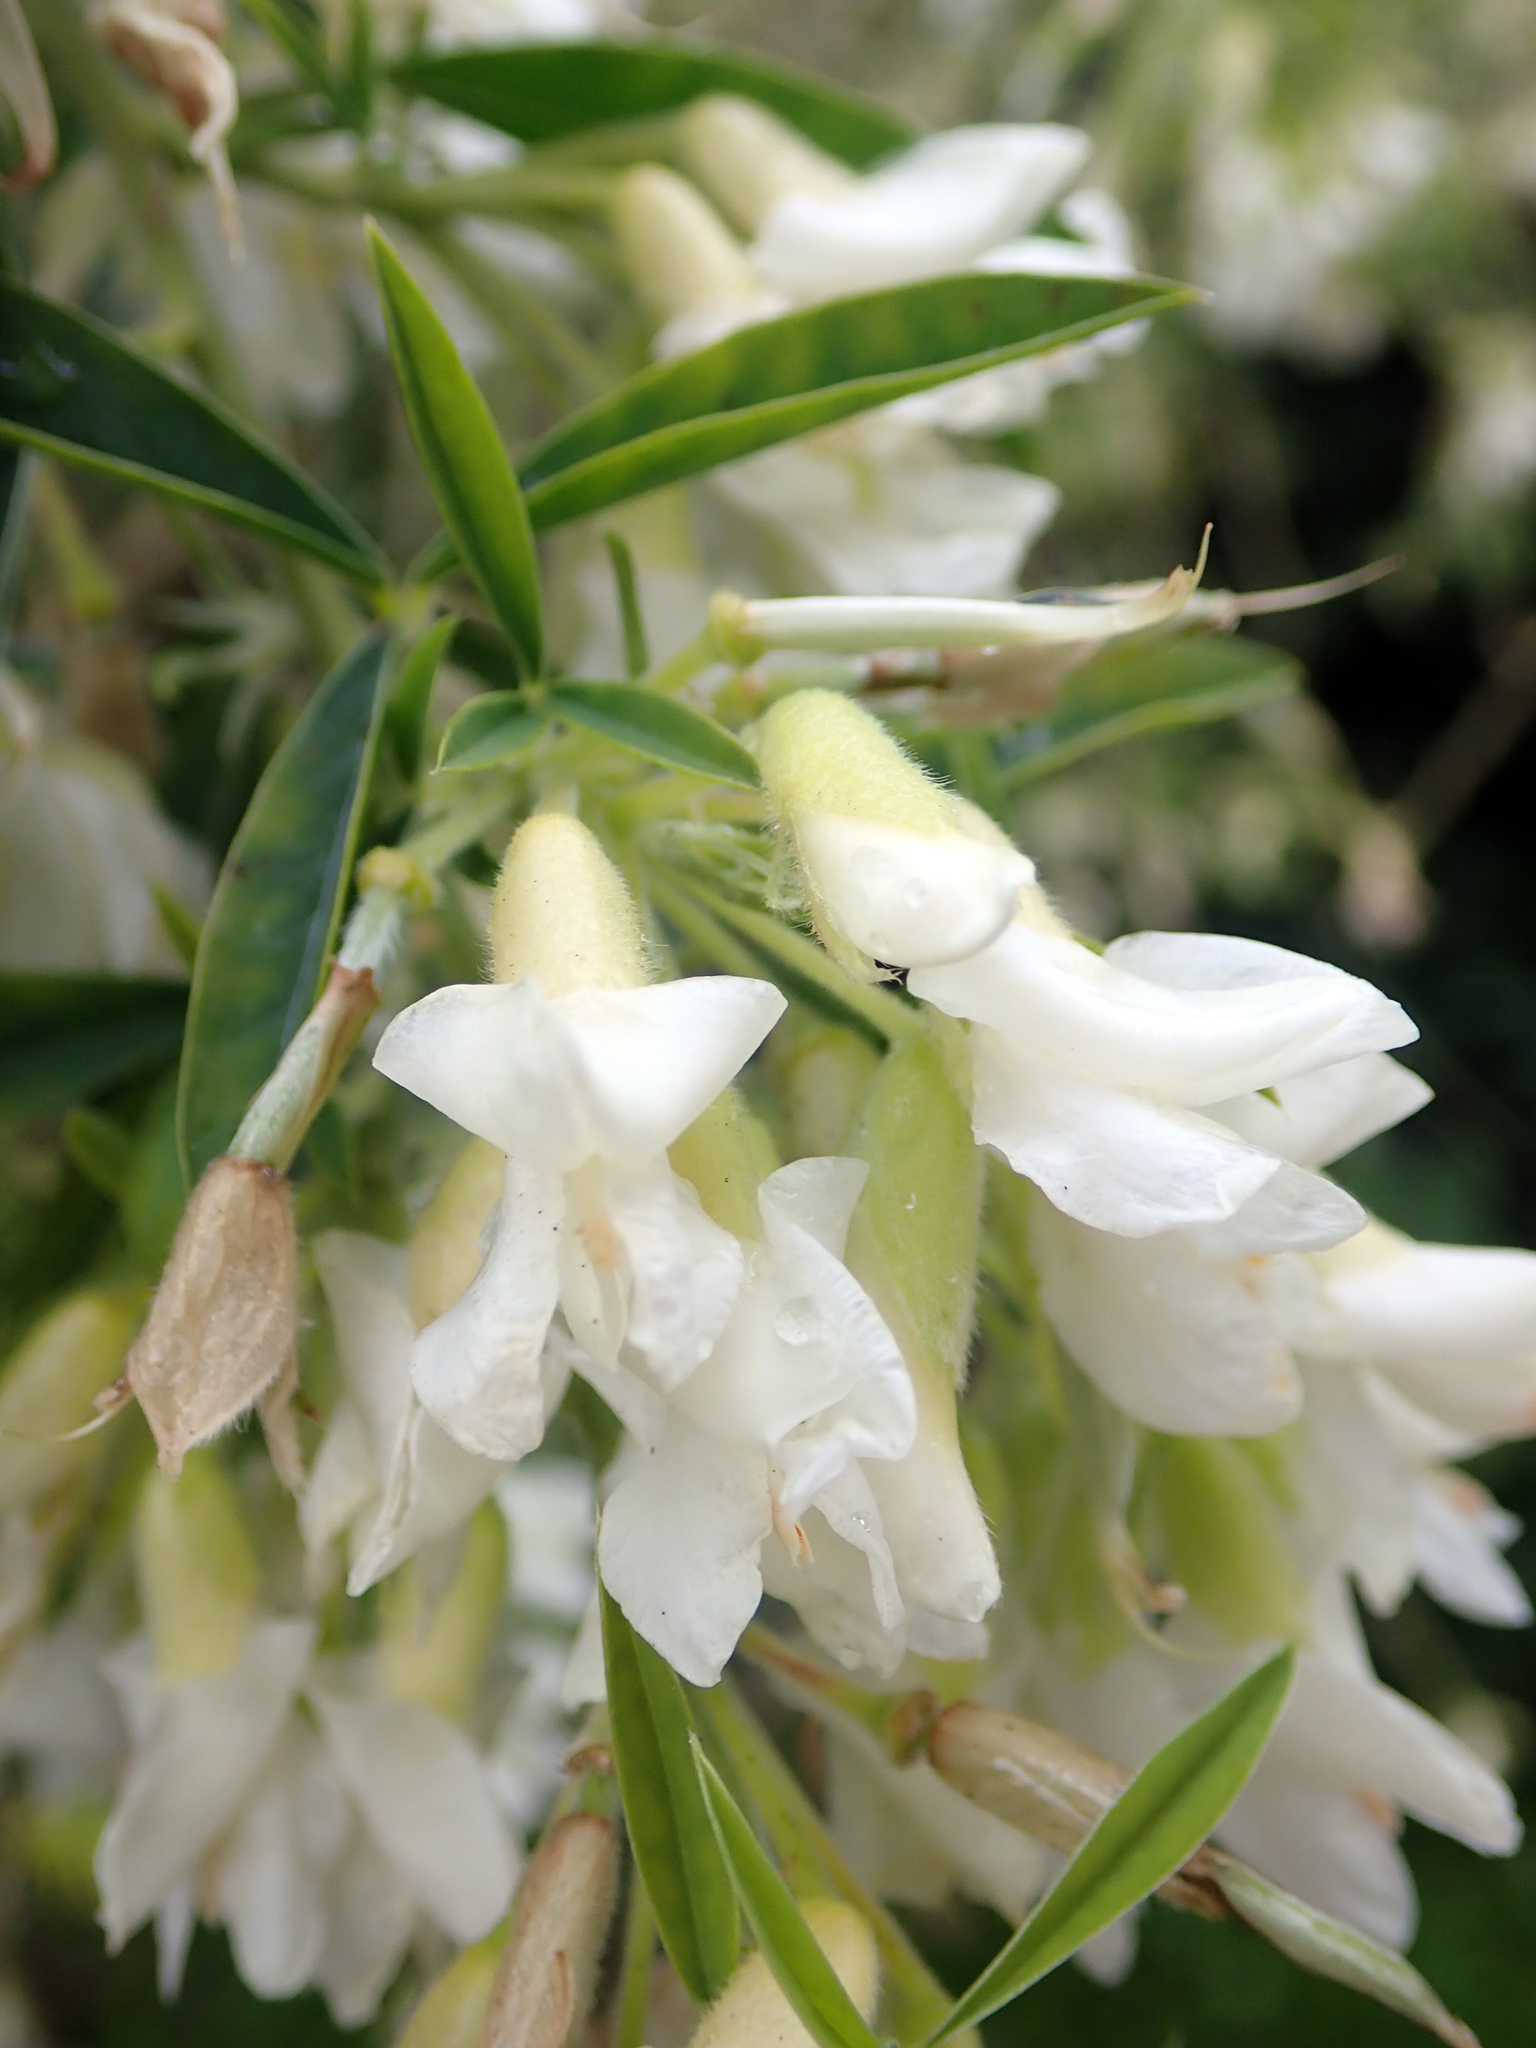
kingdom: Plantae
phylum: Tracheophyta
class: Magnoliopsida
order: Fabales
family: Fabaceae
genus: Chamaecytisus
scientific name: Chamaecytisus prolifer
